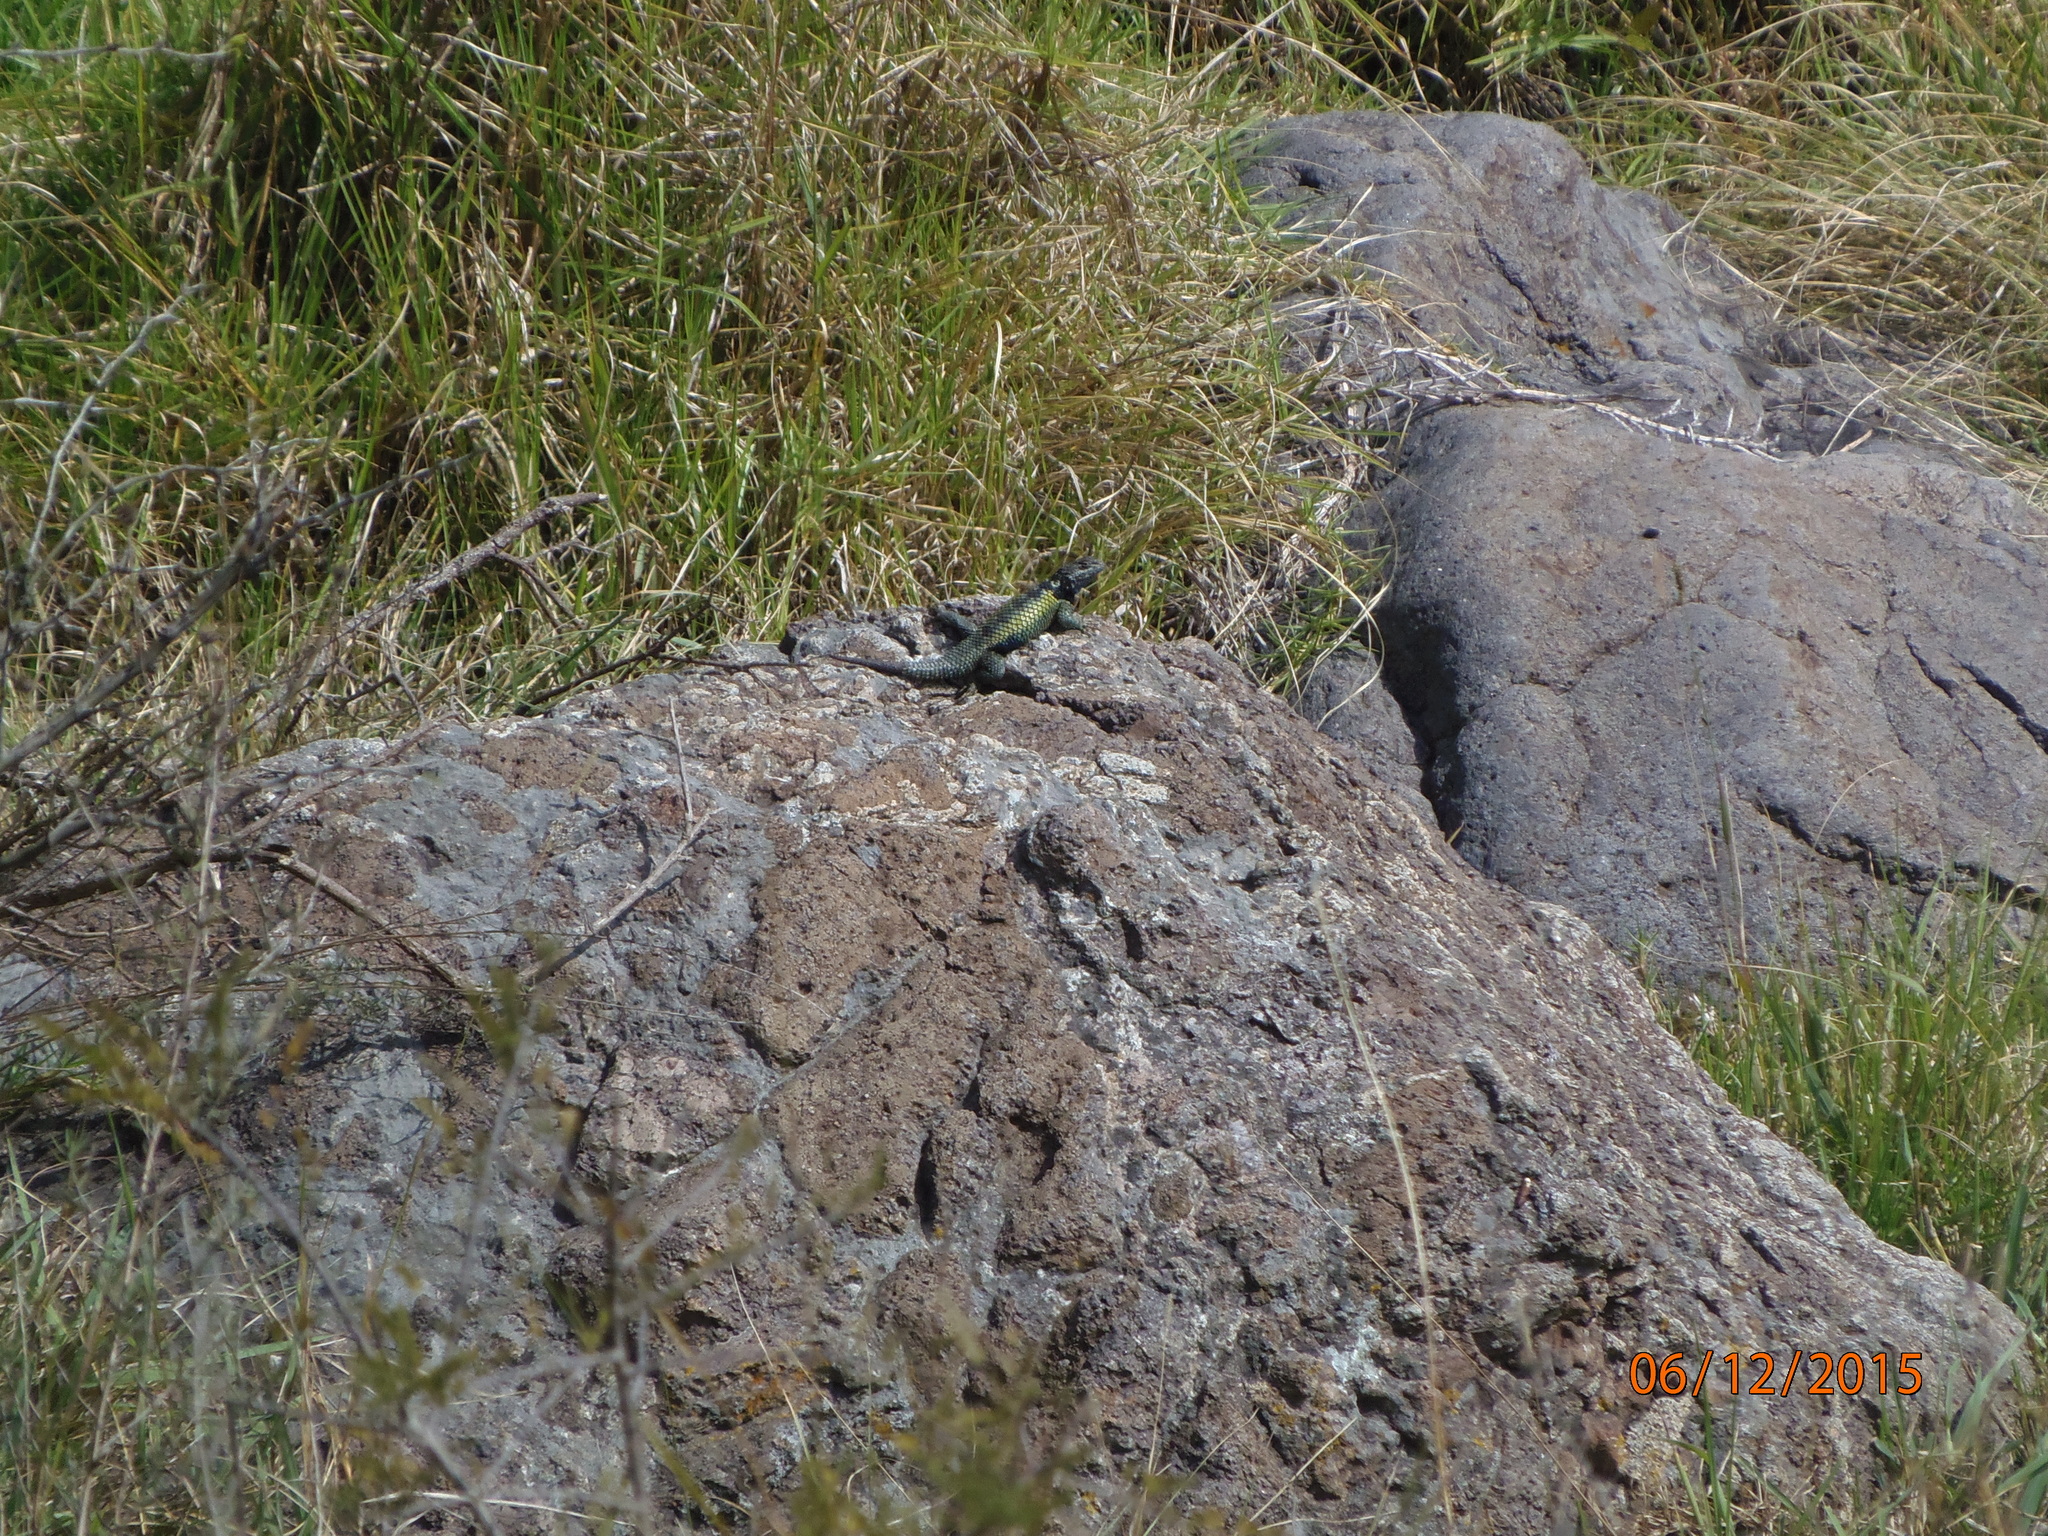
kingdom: Animalia
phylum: Chordata
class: Squamata
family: Phrynosomatidae
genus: Sceloporus
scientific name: Sceloporus
